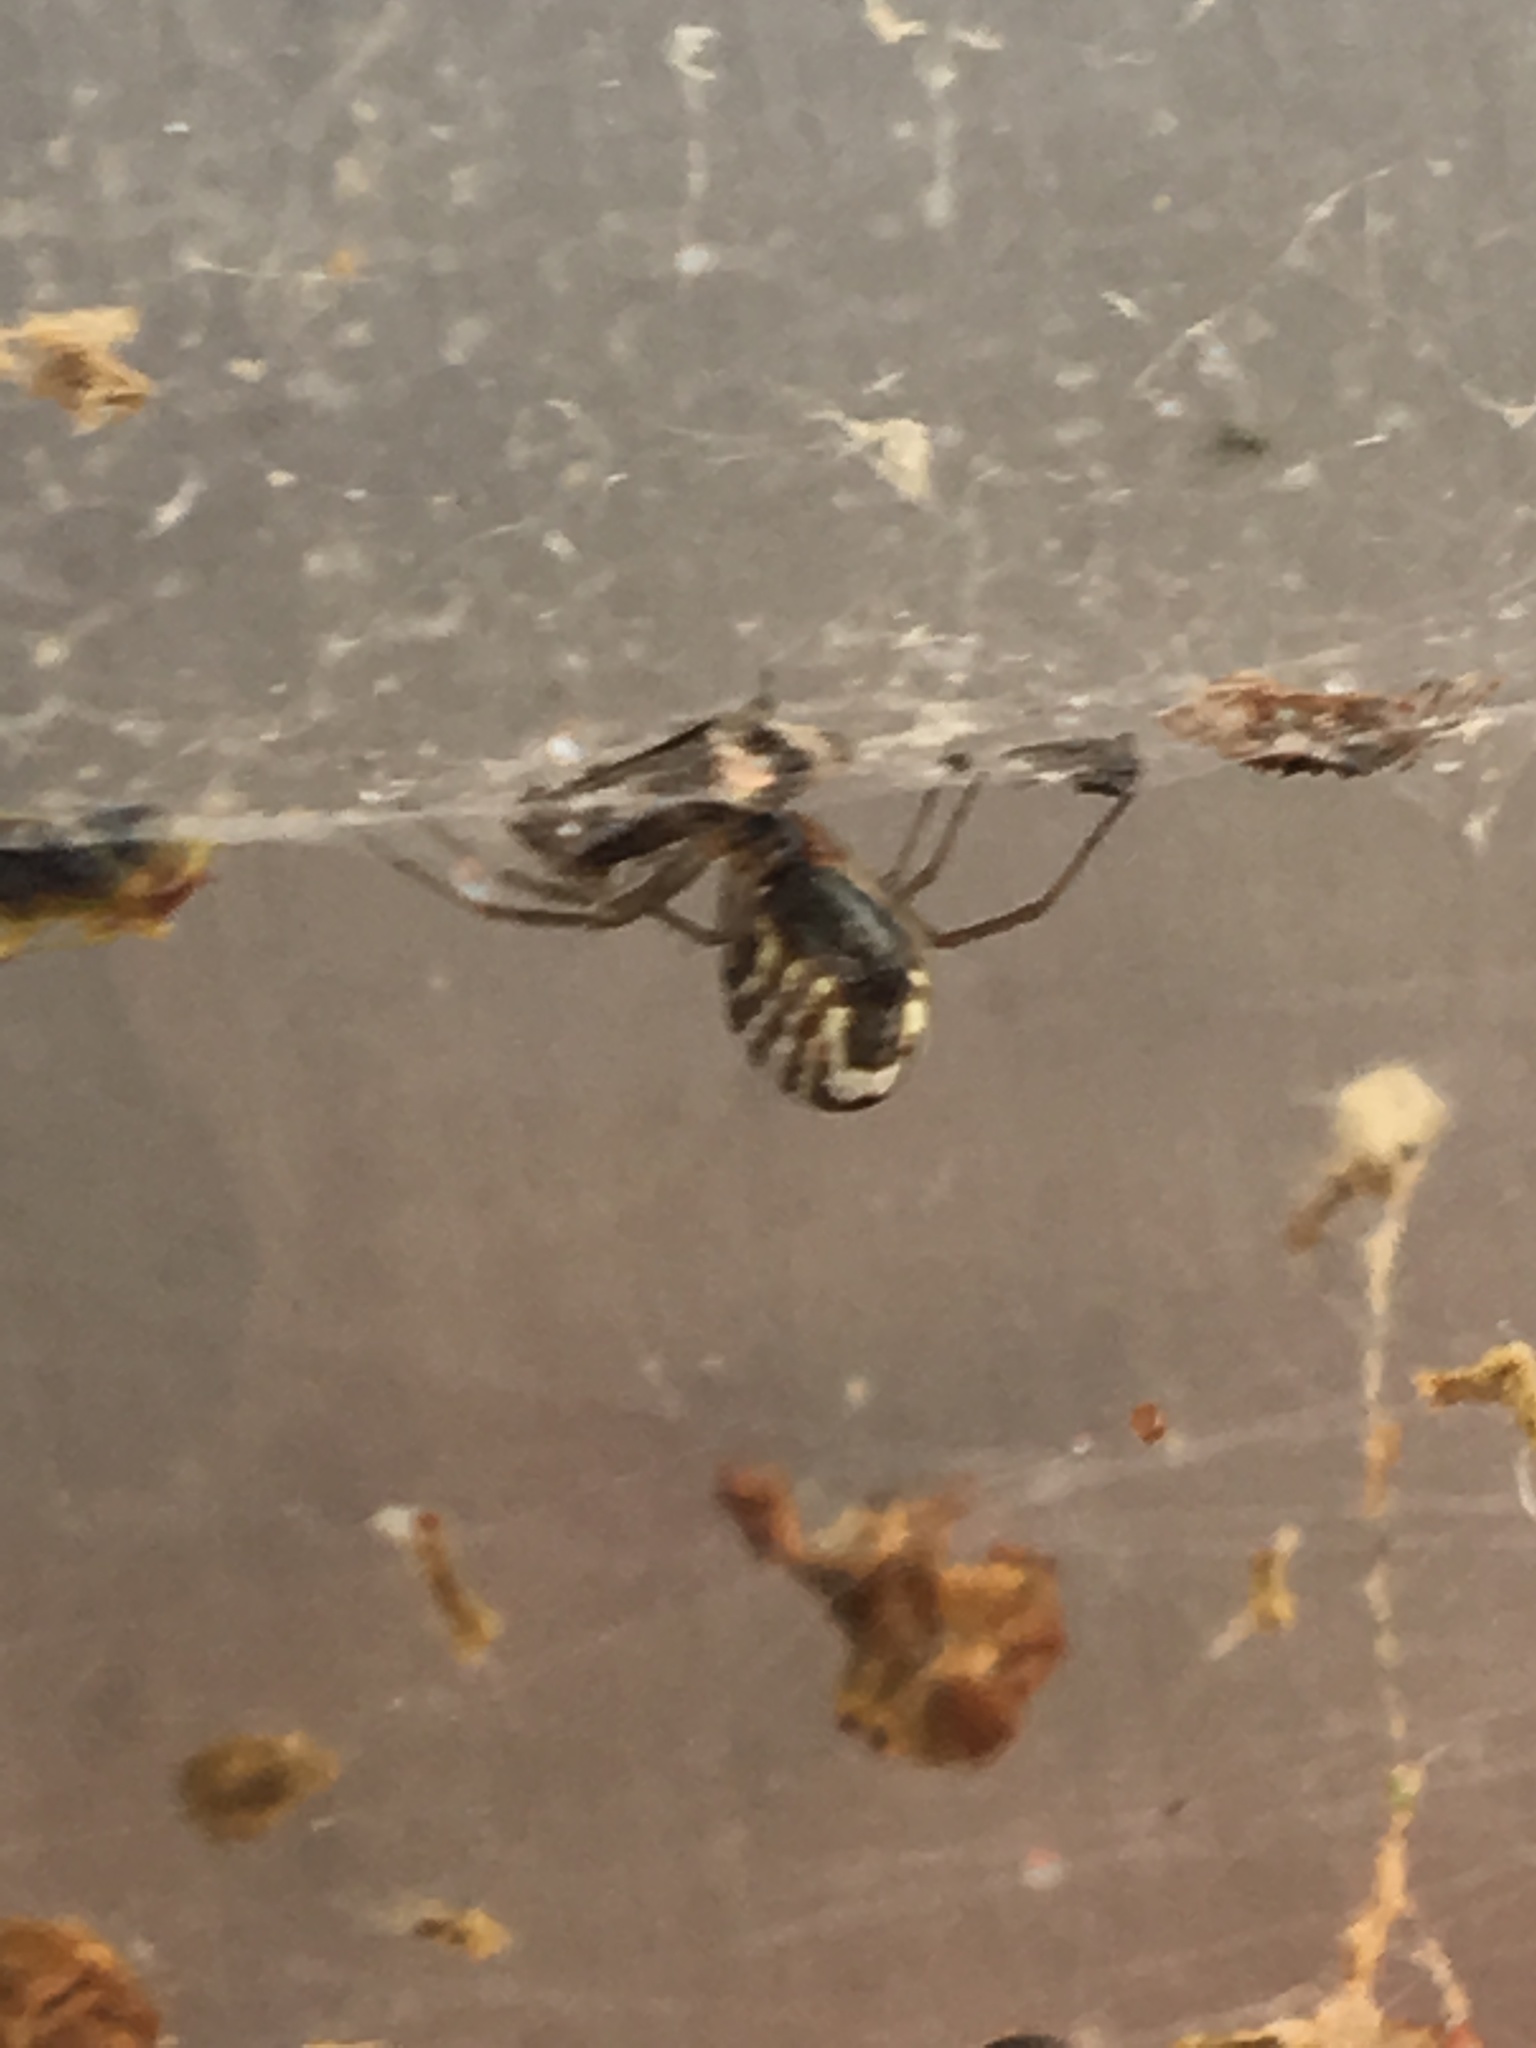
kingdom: Animalia
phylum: Arthropoda
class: Arachnida
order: Araneae
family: Linyphiidae
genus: Frontinella
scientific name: Frontinella pyramitela
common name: Bowl-and-doily spider
